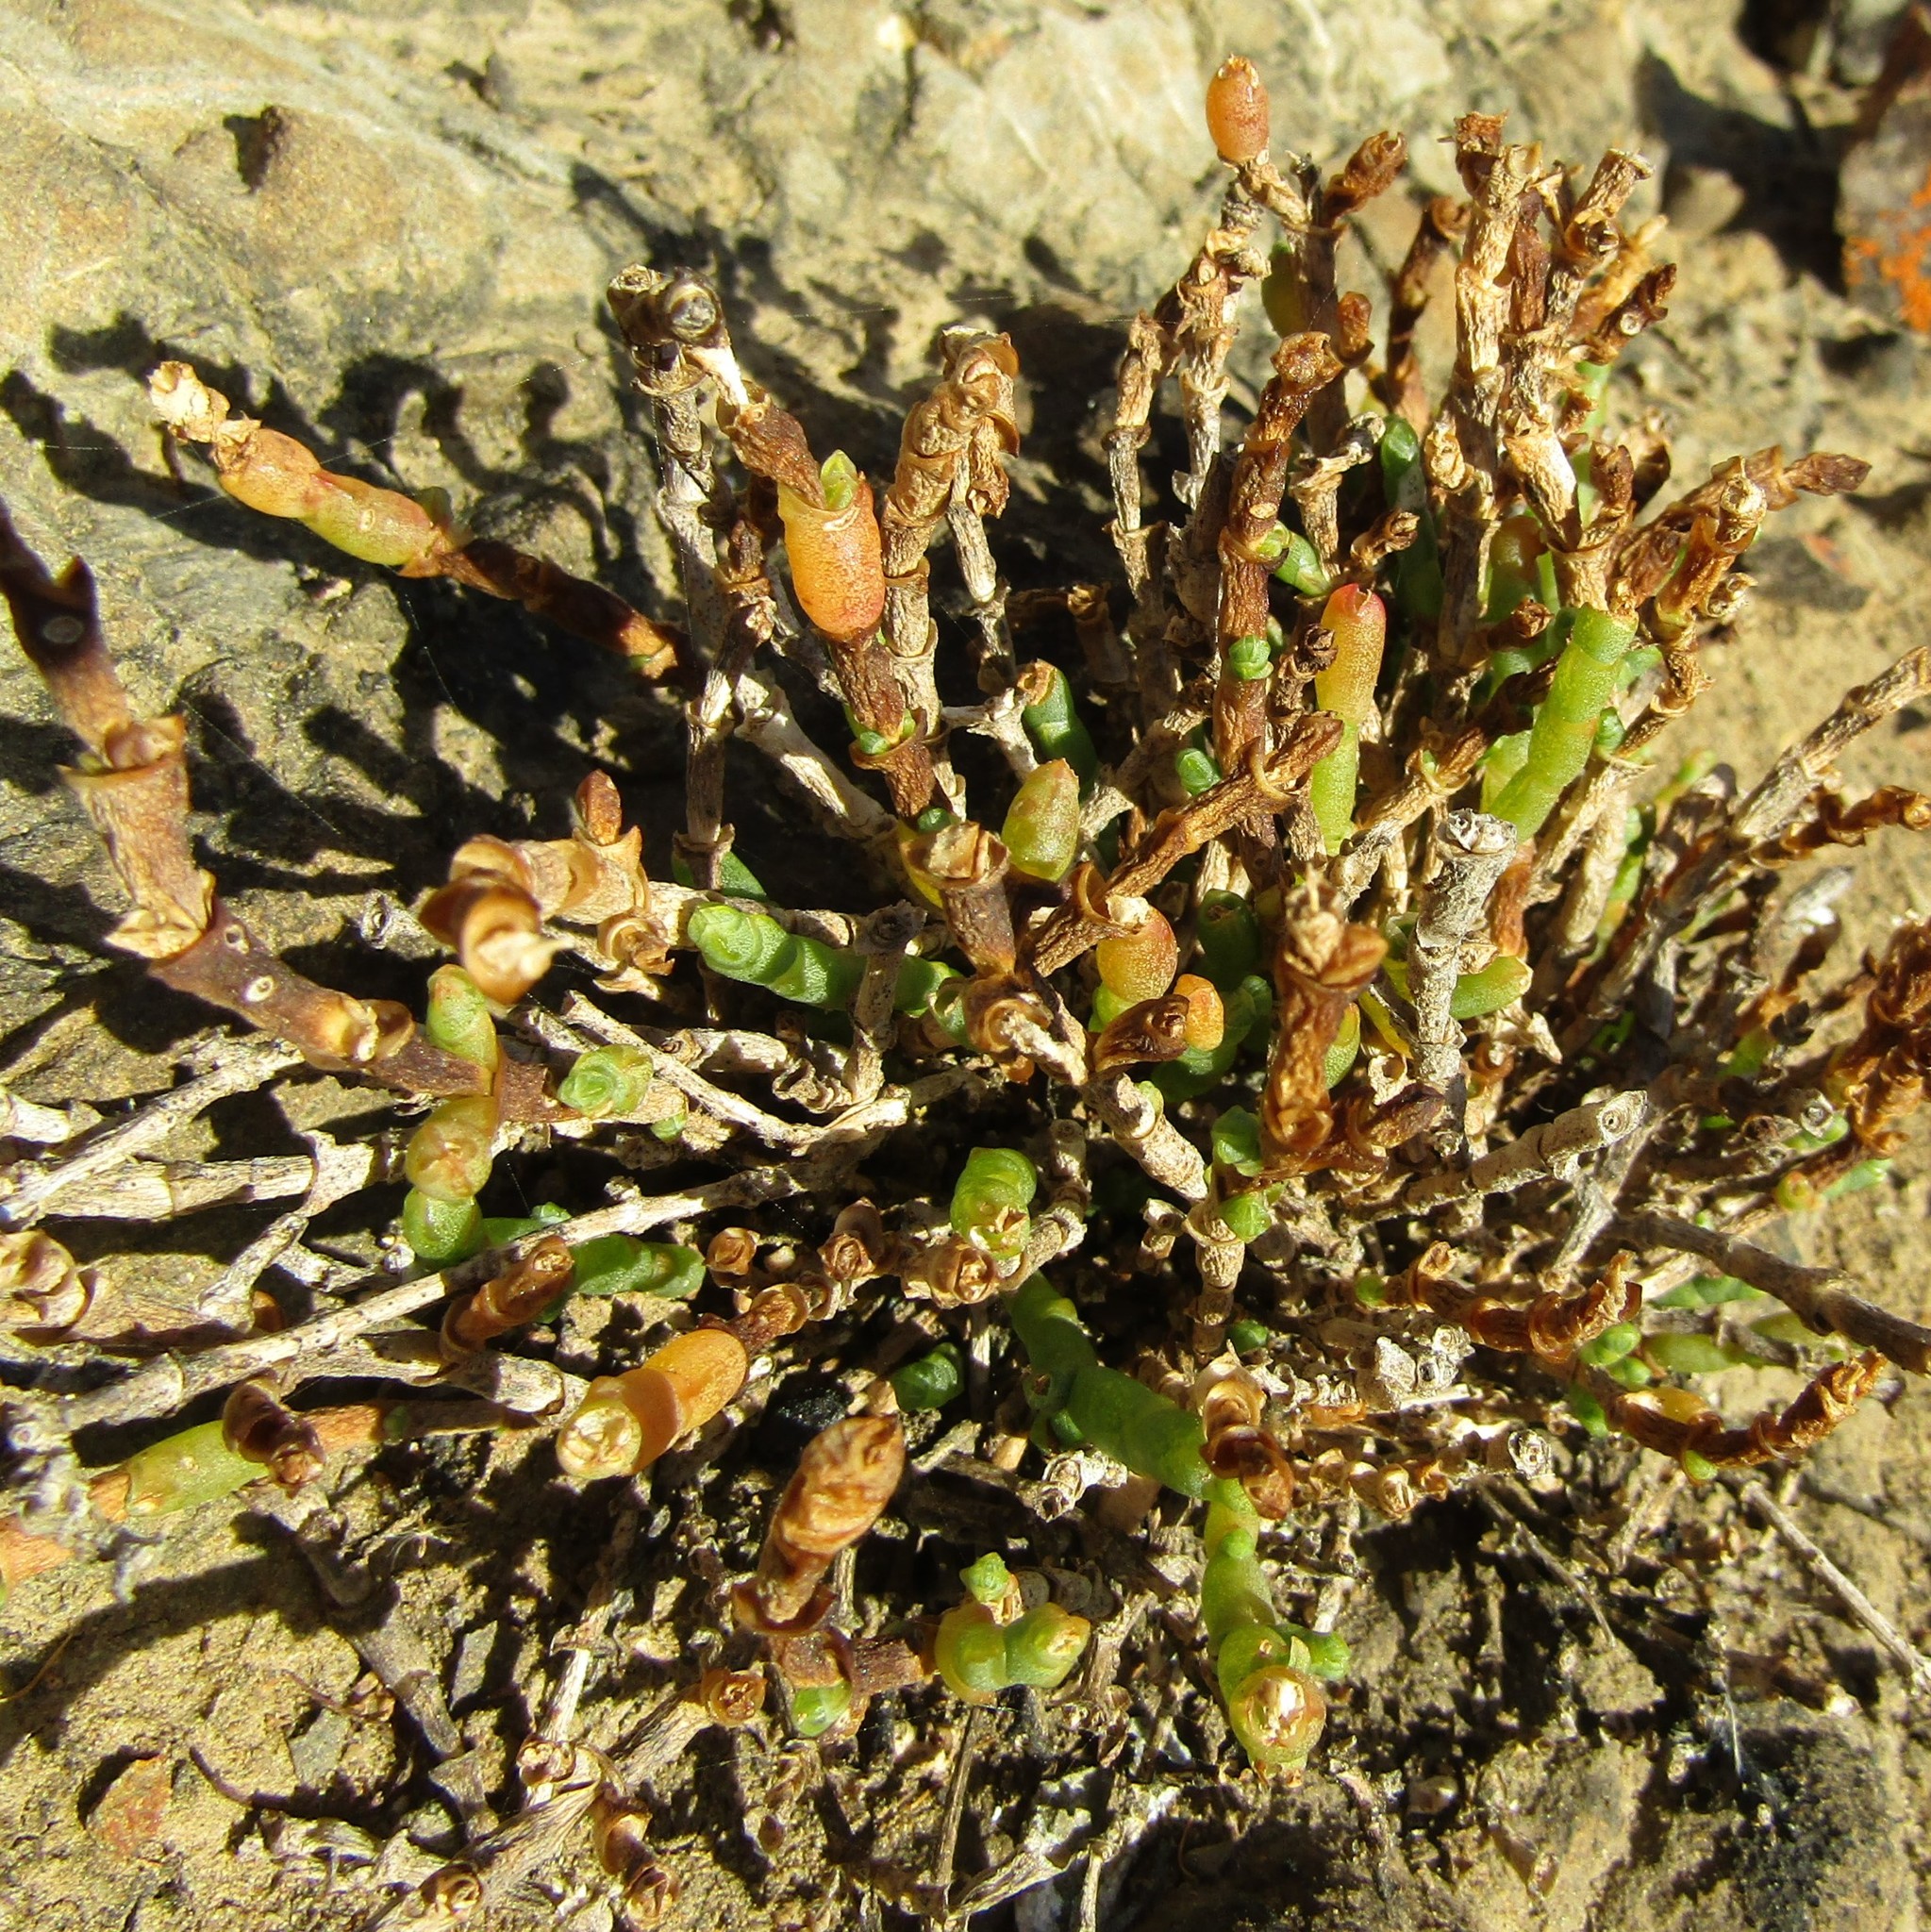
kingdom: Plantae
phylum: Tracheophyta
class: Magnoliopsida
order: Caryophyllales
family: Amaranthaceae
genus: Salicornia
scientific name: Salicornia quinqueflora
